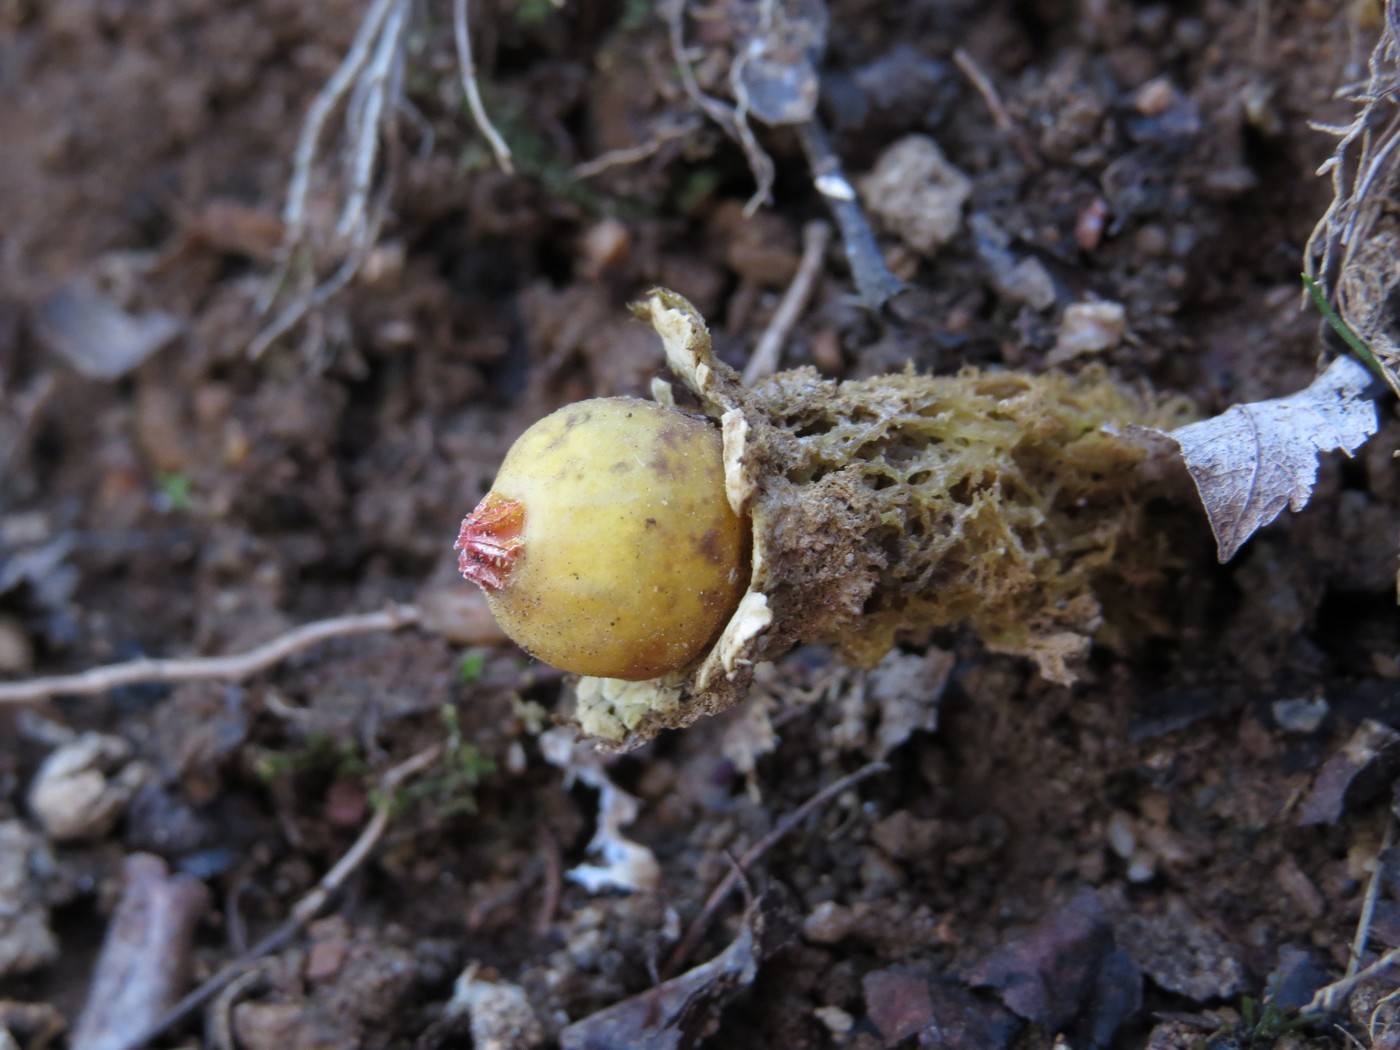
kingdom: Fungi
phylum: Basidiomycota
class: Agaricomycetes
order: Boletales
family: Calostomataceae
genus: Calostoma
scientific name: Calostoma lutescens
